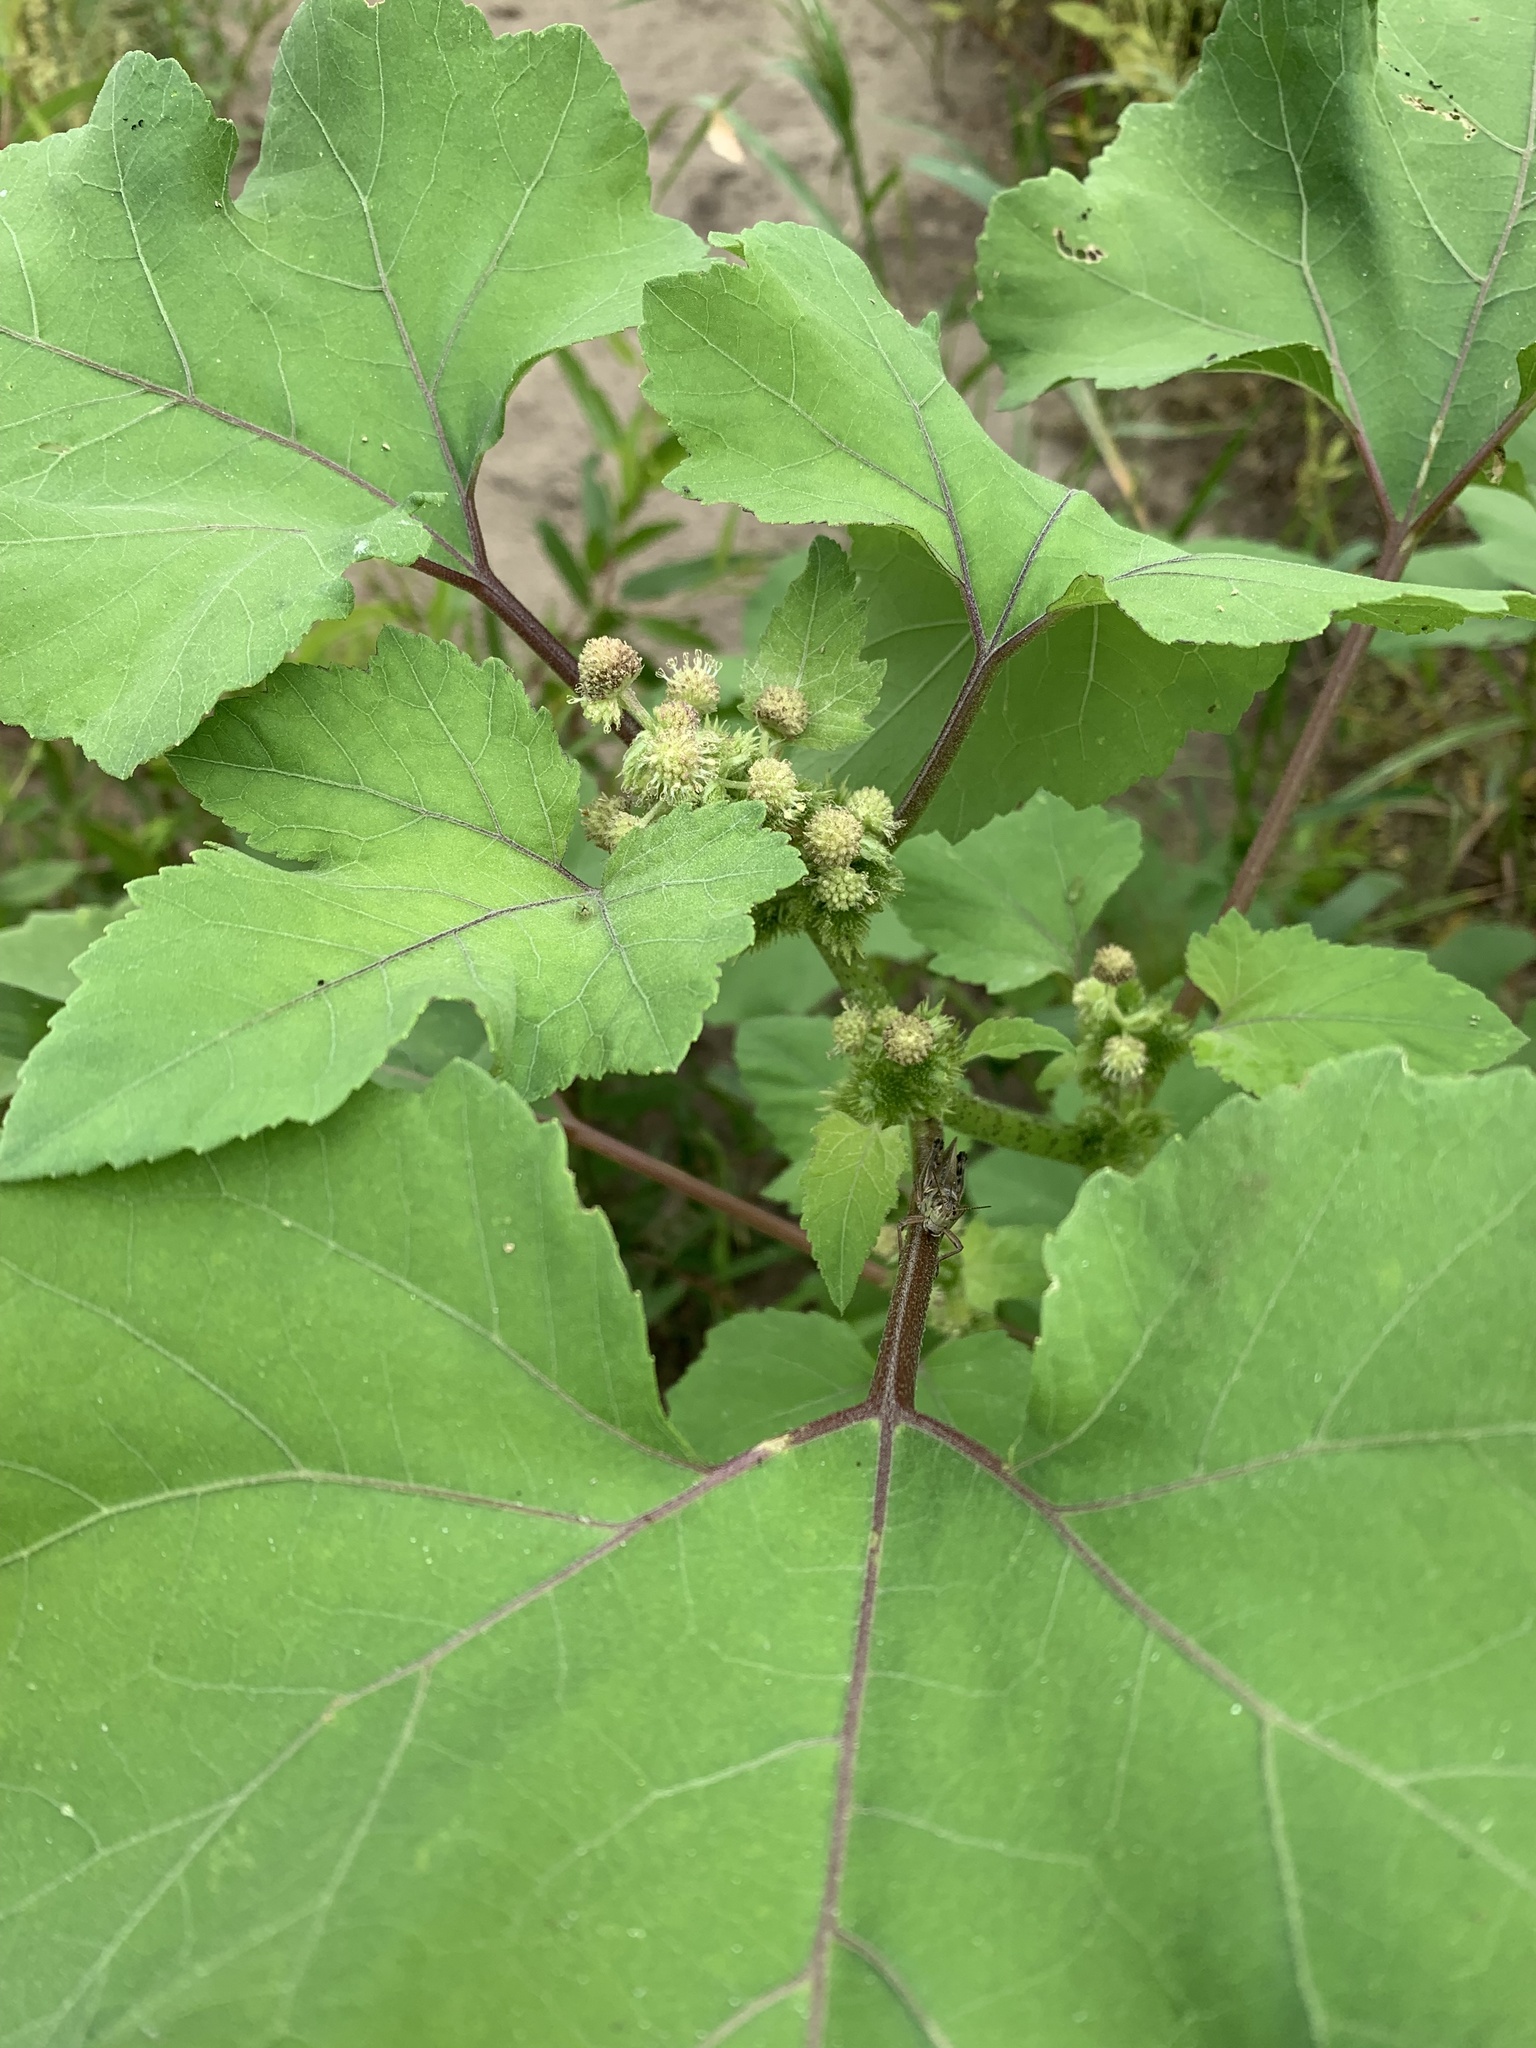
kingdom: Plantae
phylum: Tracheophyta
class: Magnoliopsida
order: Asterales
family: Asteraceae
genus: Xanthium
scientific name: Xanthium strumarium
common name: Rough cocklebur
